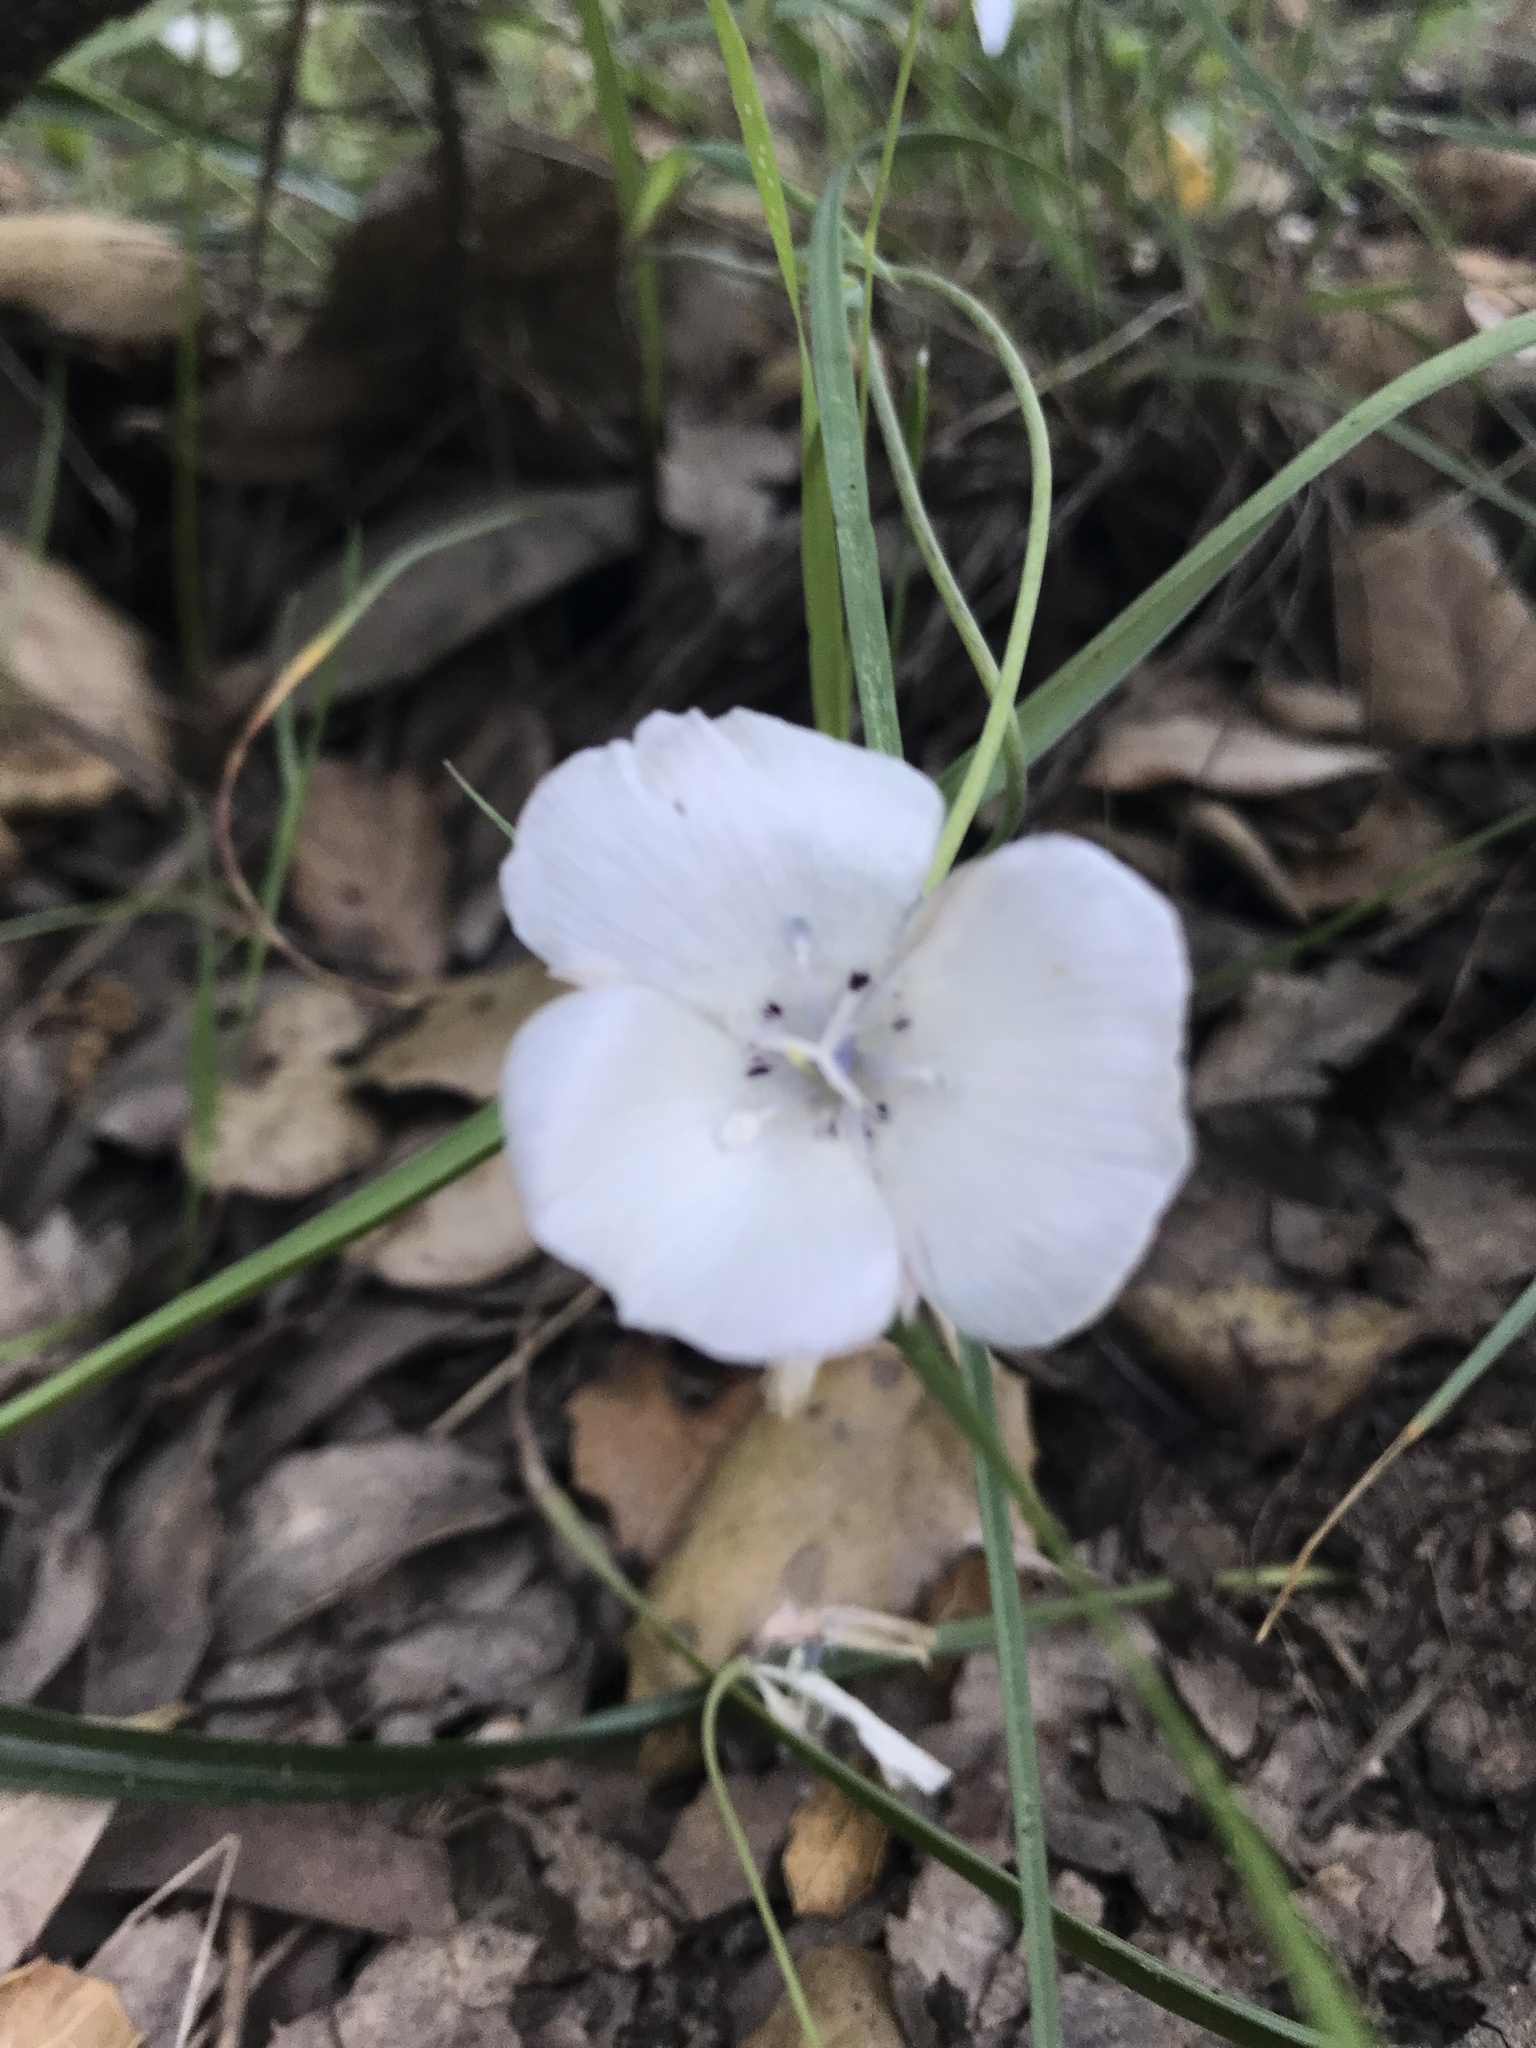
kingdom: Plantae
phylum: Tracheophyta
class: Liliopsida
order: Liliales
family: Liliaceae
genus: Calochortus
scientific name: Calochortus umbellatus
